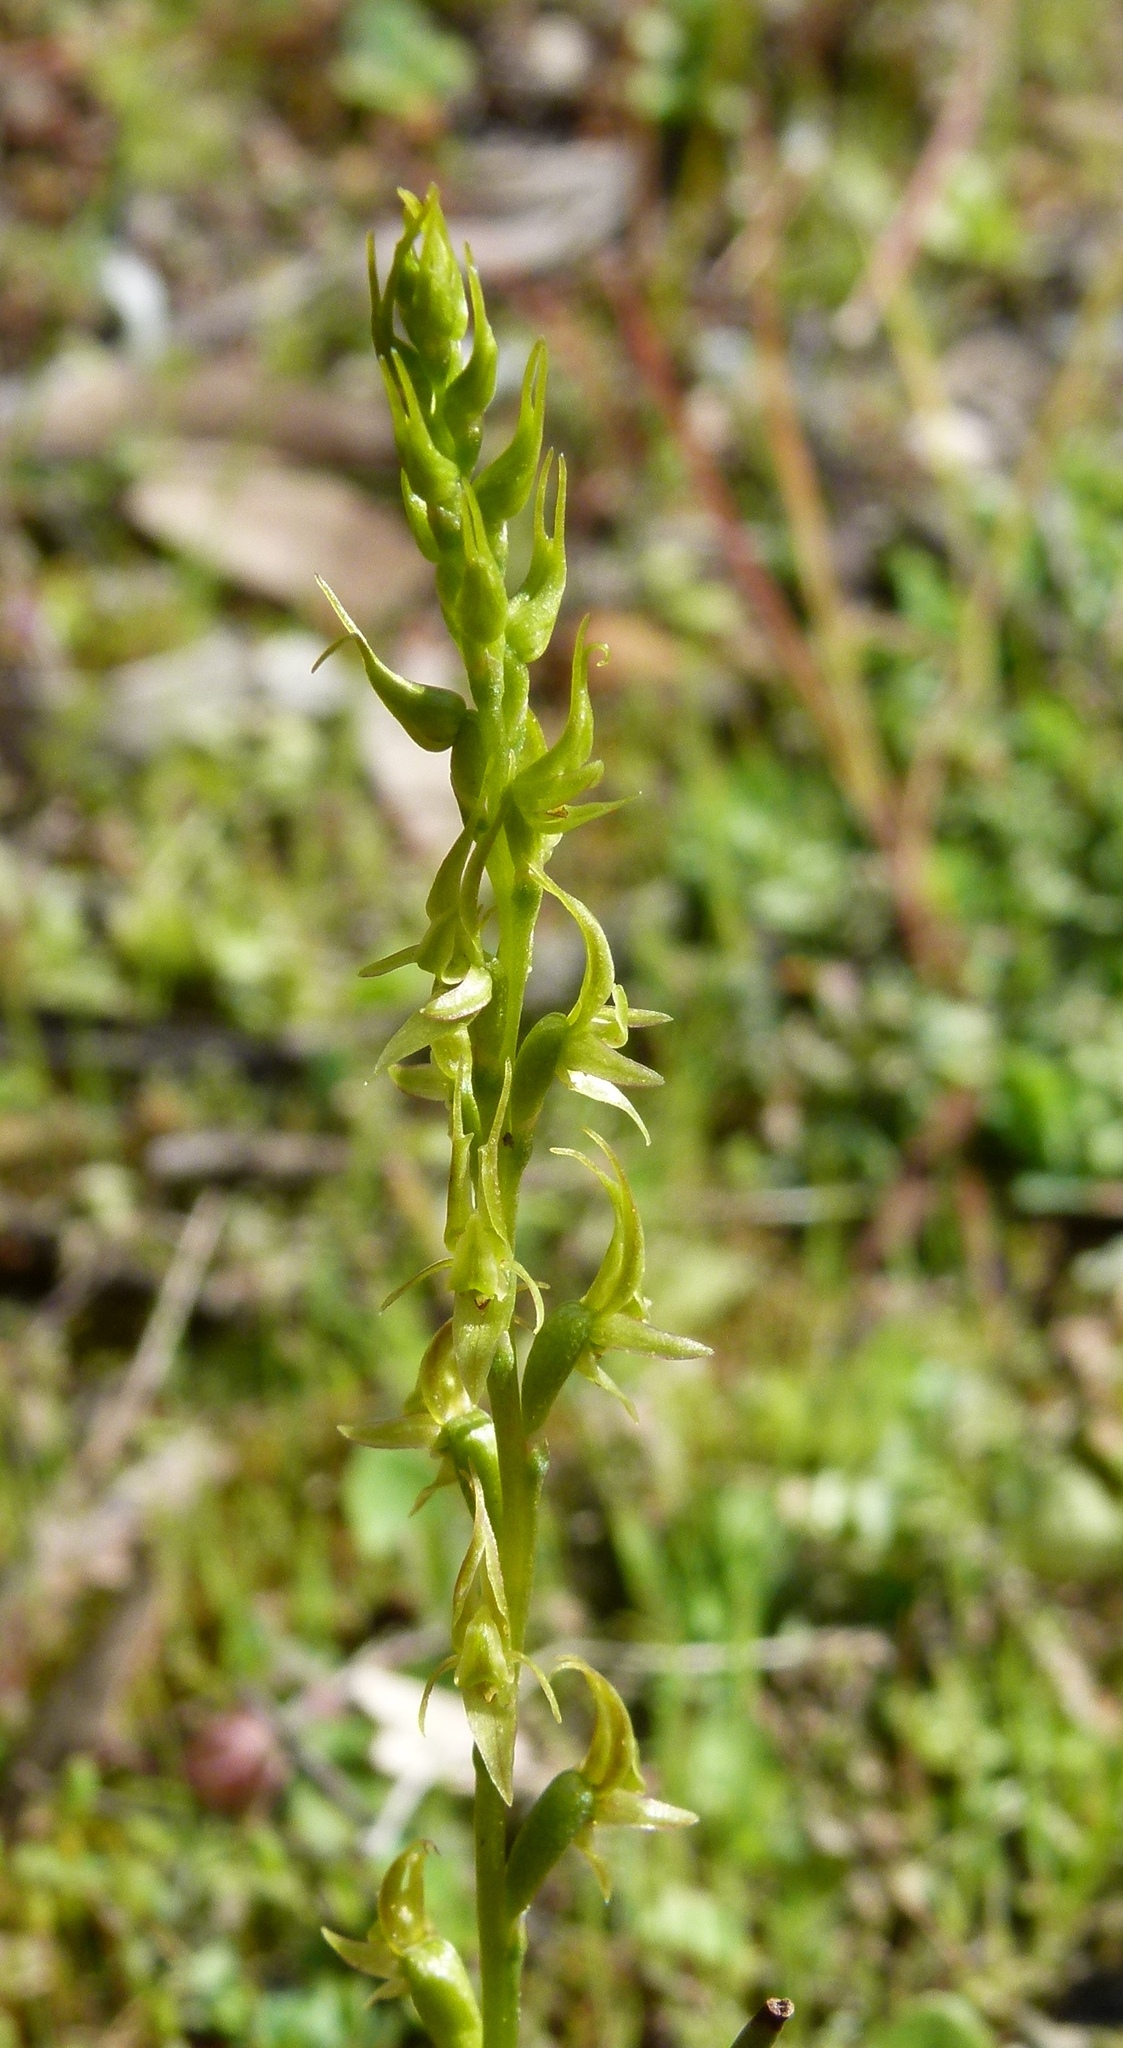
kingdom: Plantae
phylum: Tracheophyta
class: Liliopsida
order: Asparagales
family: Orchidaceae
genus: Prasophyllum
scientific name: Prasophyllum gracile
